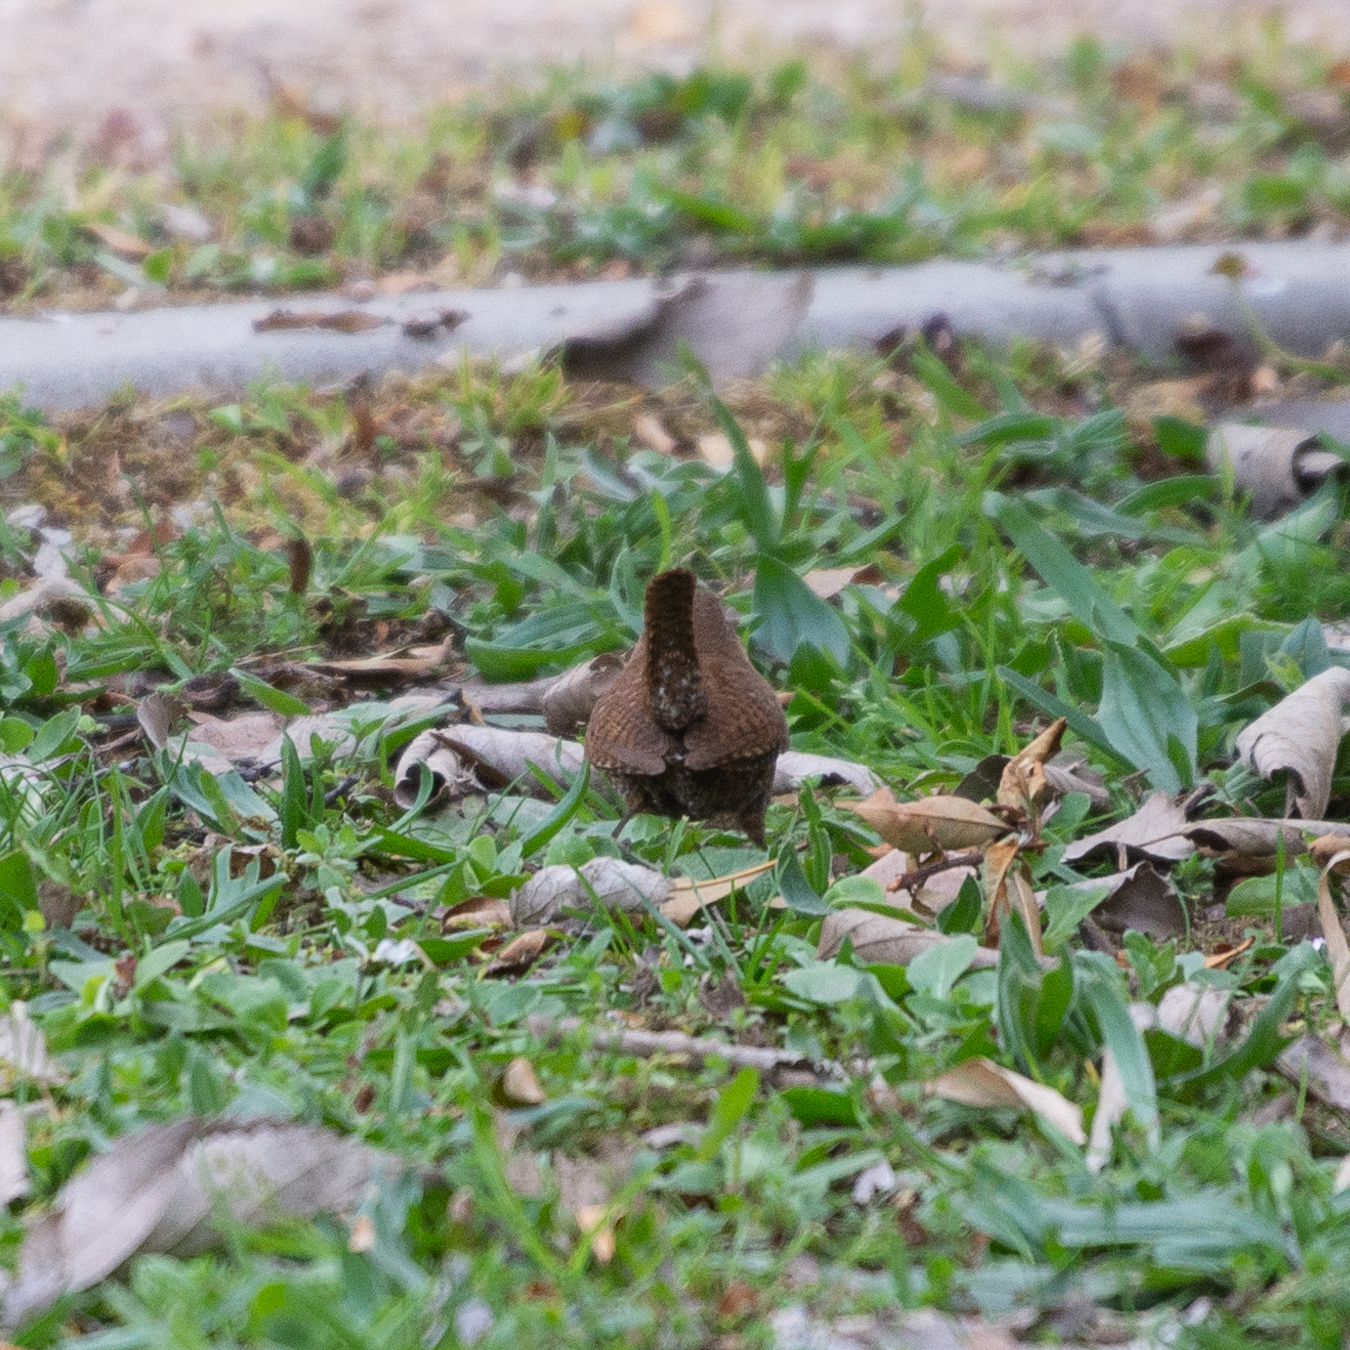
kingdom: Animalia
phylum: Chordata
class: Aves
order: Passeriformes
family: Troglodytidae
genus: Troglodytes
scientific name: Troglodytes troglodytes
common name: Eurasian wren
